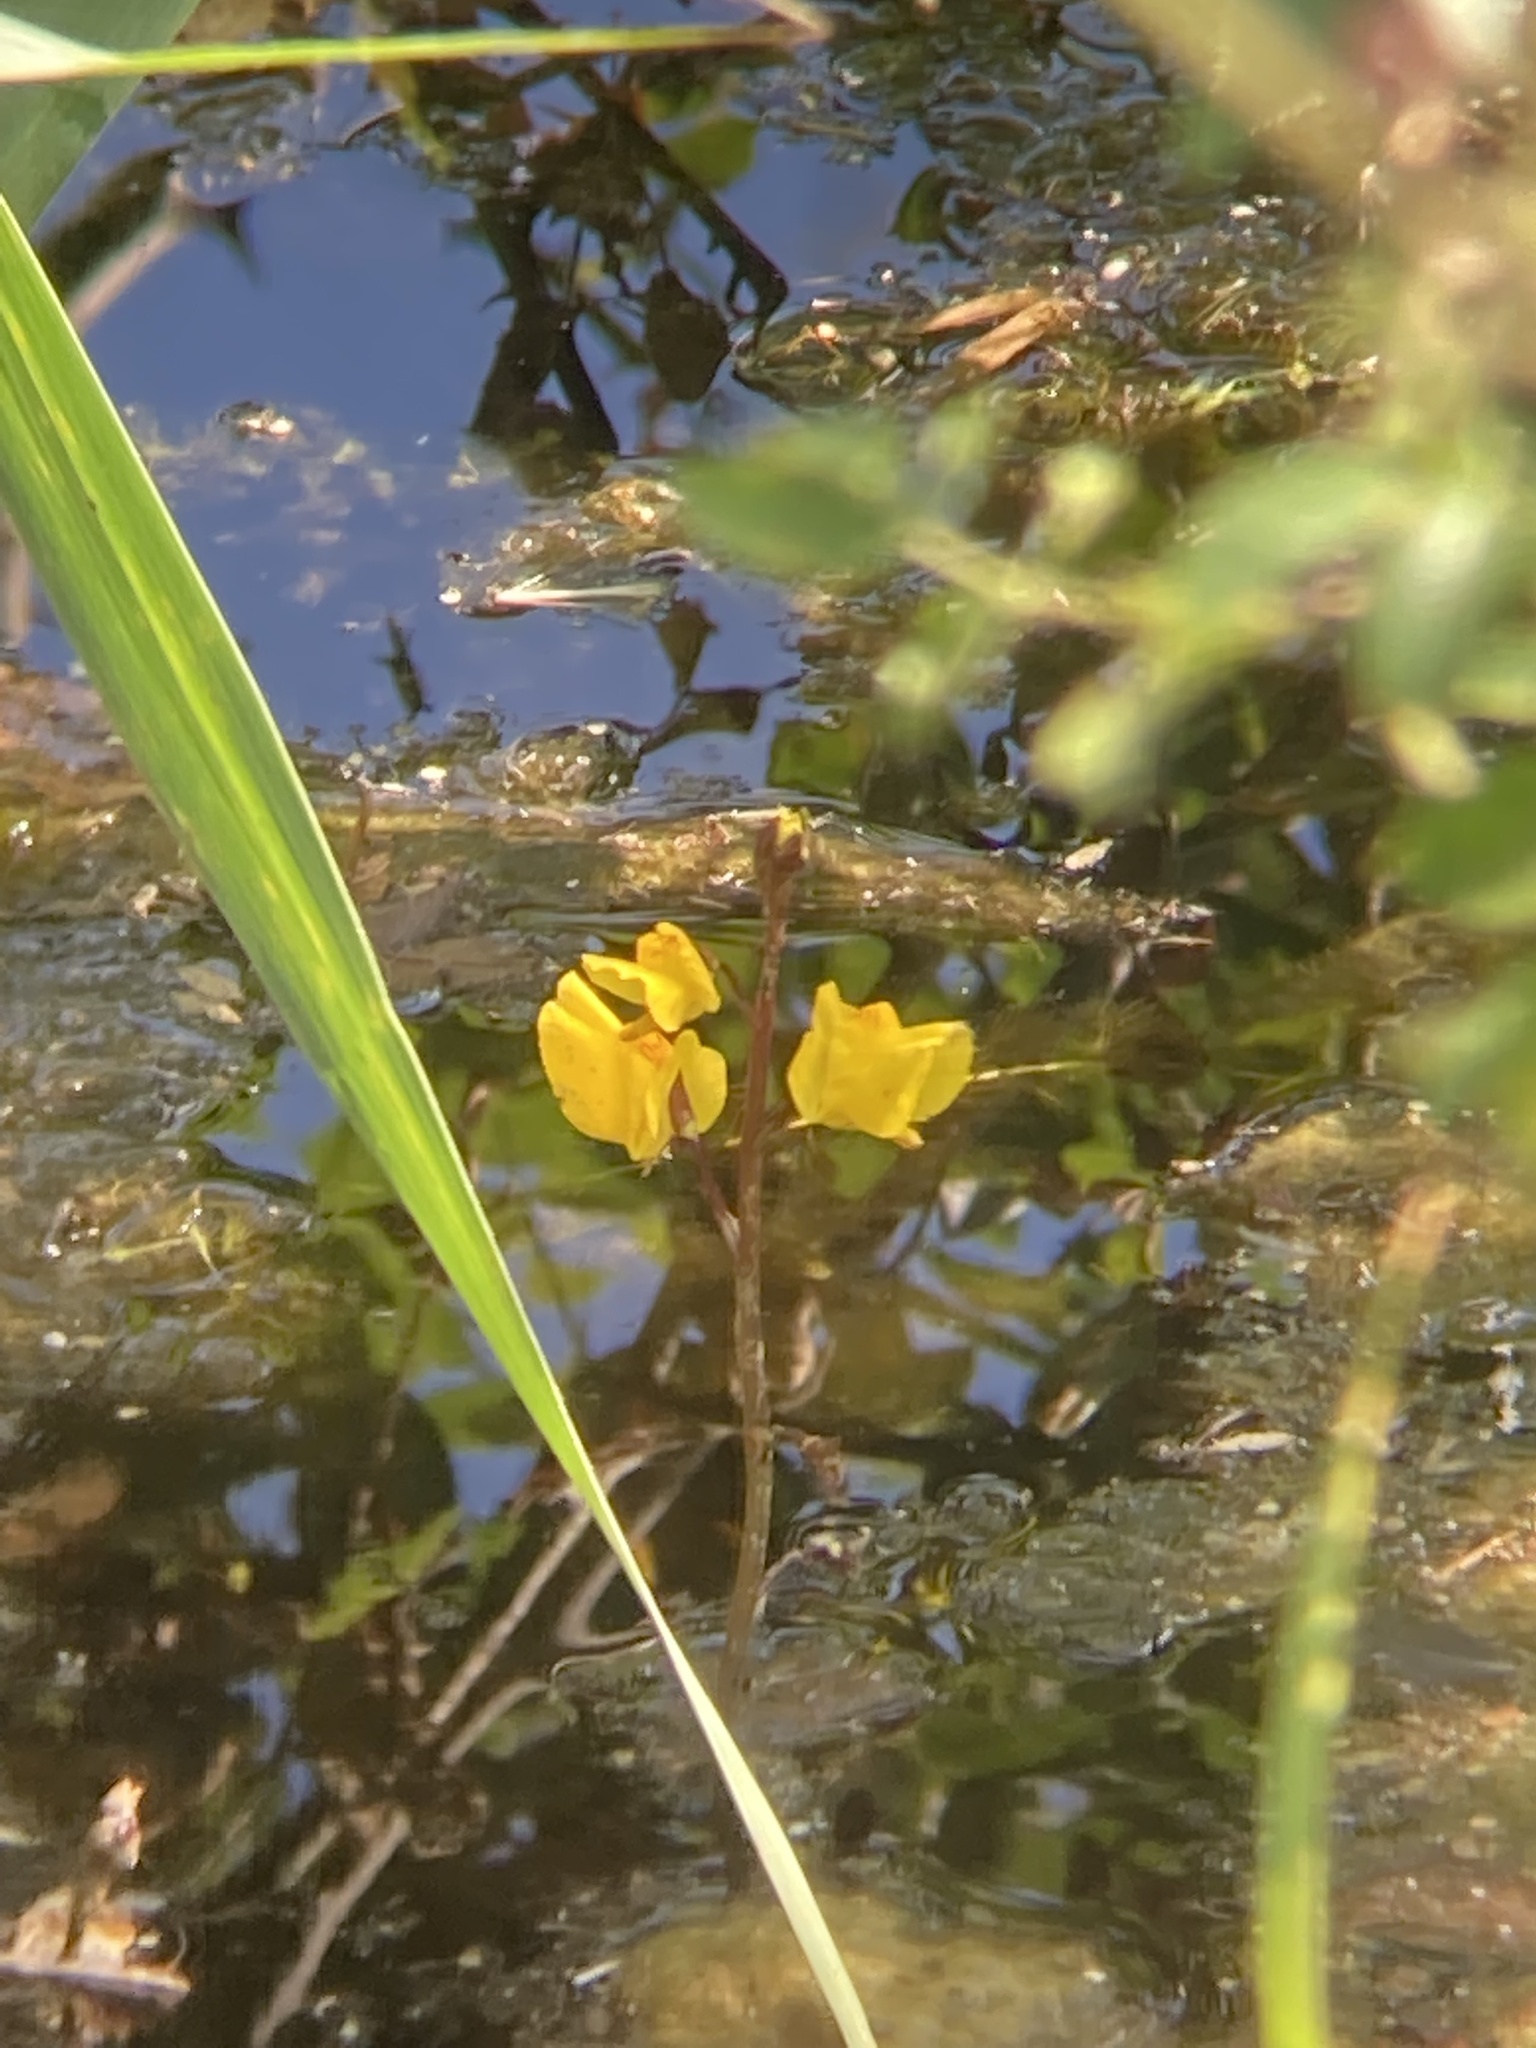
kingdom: Plantae
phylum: Tracheophyta
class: Magnoliopsida
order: Lamiales
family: Lentibulariaceae
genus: Utricularia
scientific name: Utricularia vulgaris
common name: Greater bladderwort
